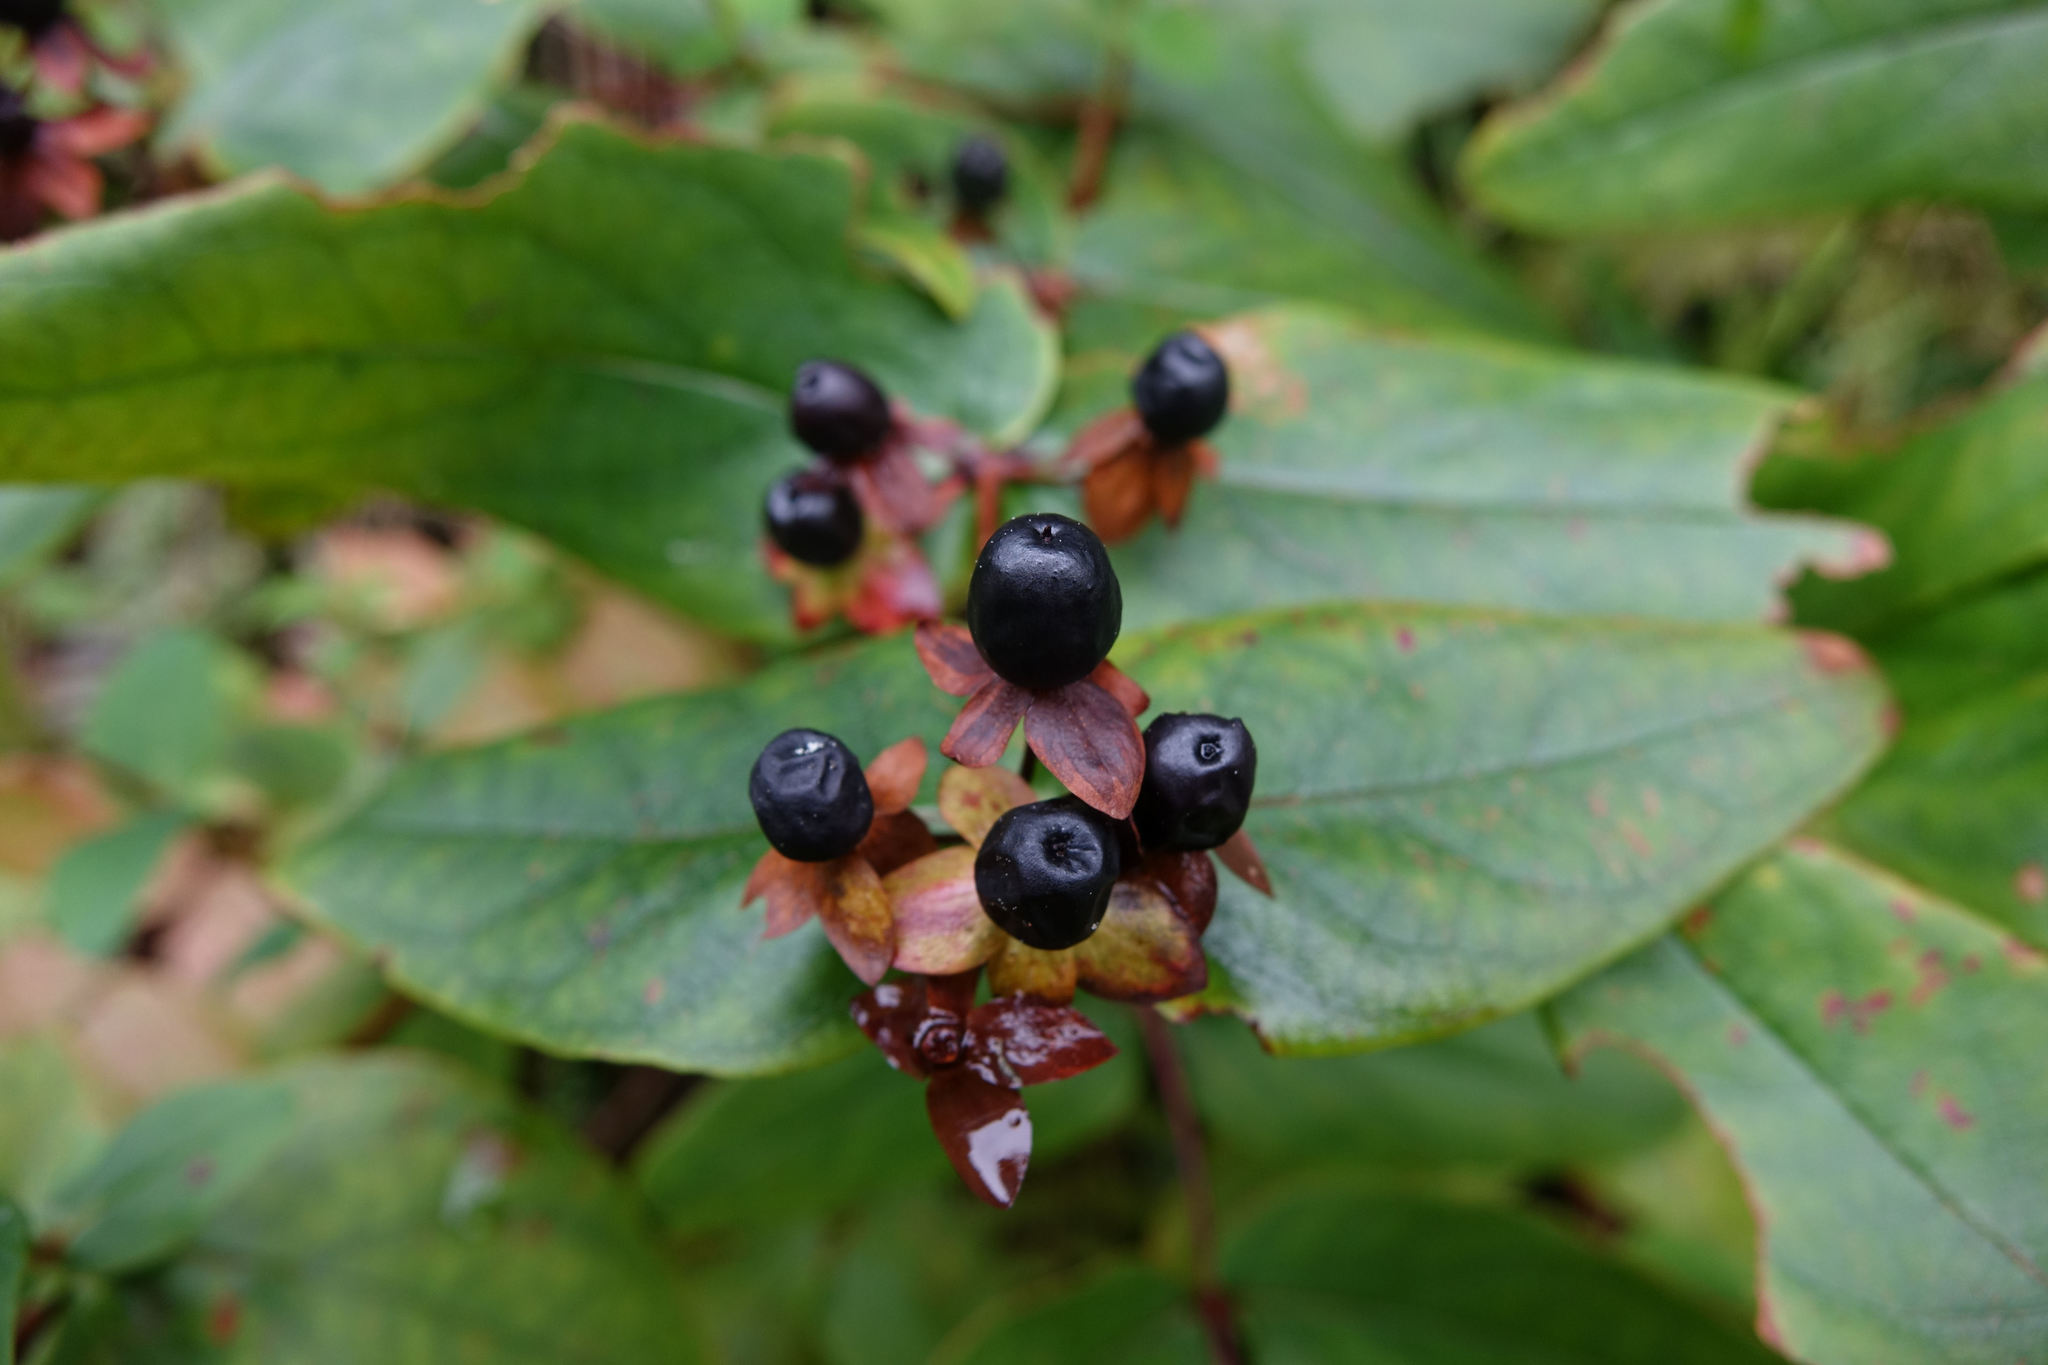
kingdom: Plantae
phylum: Tracheophyta
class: Magnoliopsida
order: Malpighiales
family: Hypericaceae
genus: Hypericum
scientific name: Hypericum androsaemum
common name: Sweet-amber
